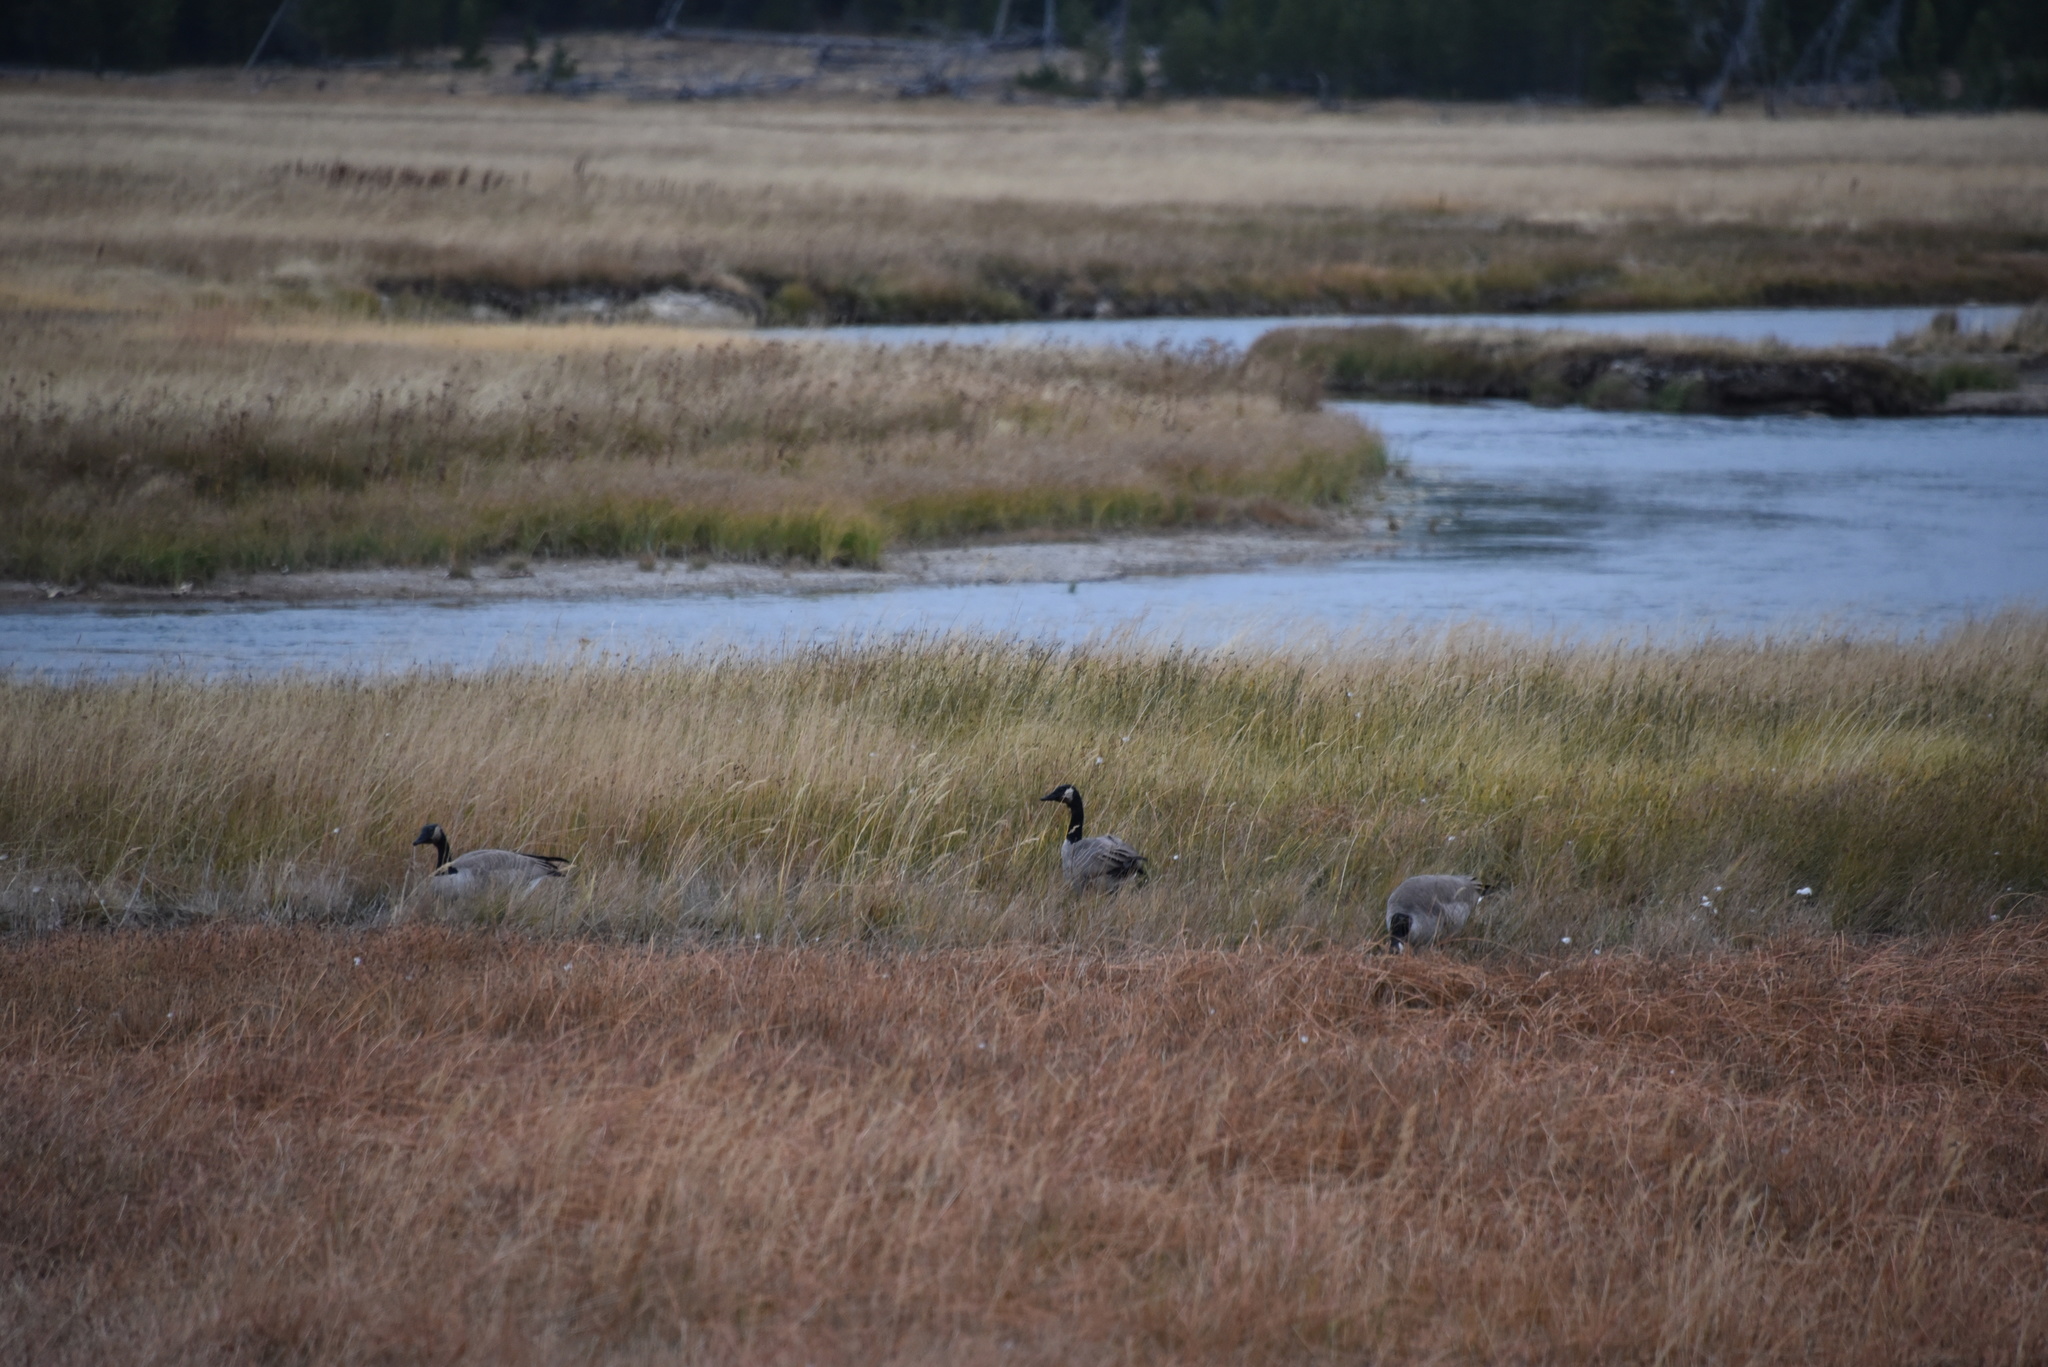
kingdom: Animalia
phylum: Chordata
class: Aves
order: Anseriformes
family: Anatidae
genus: Branta
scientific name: Branta canadensis
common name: Canada goose
